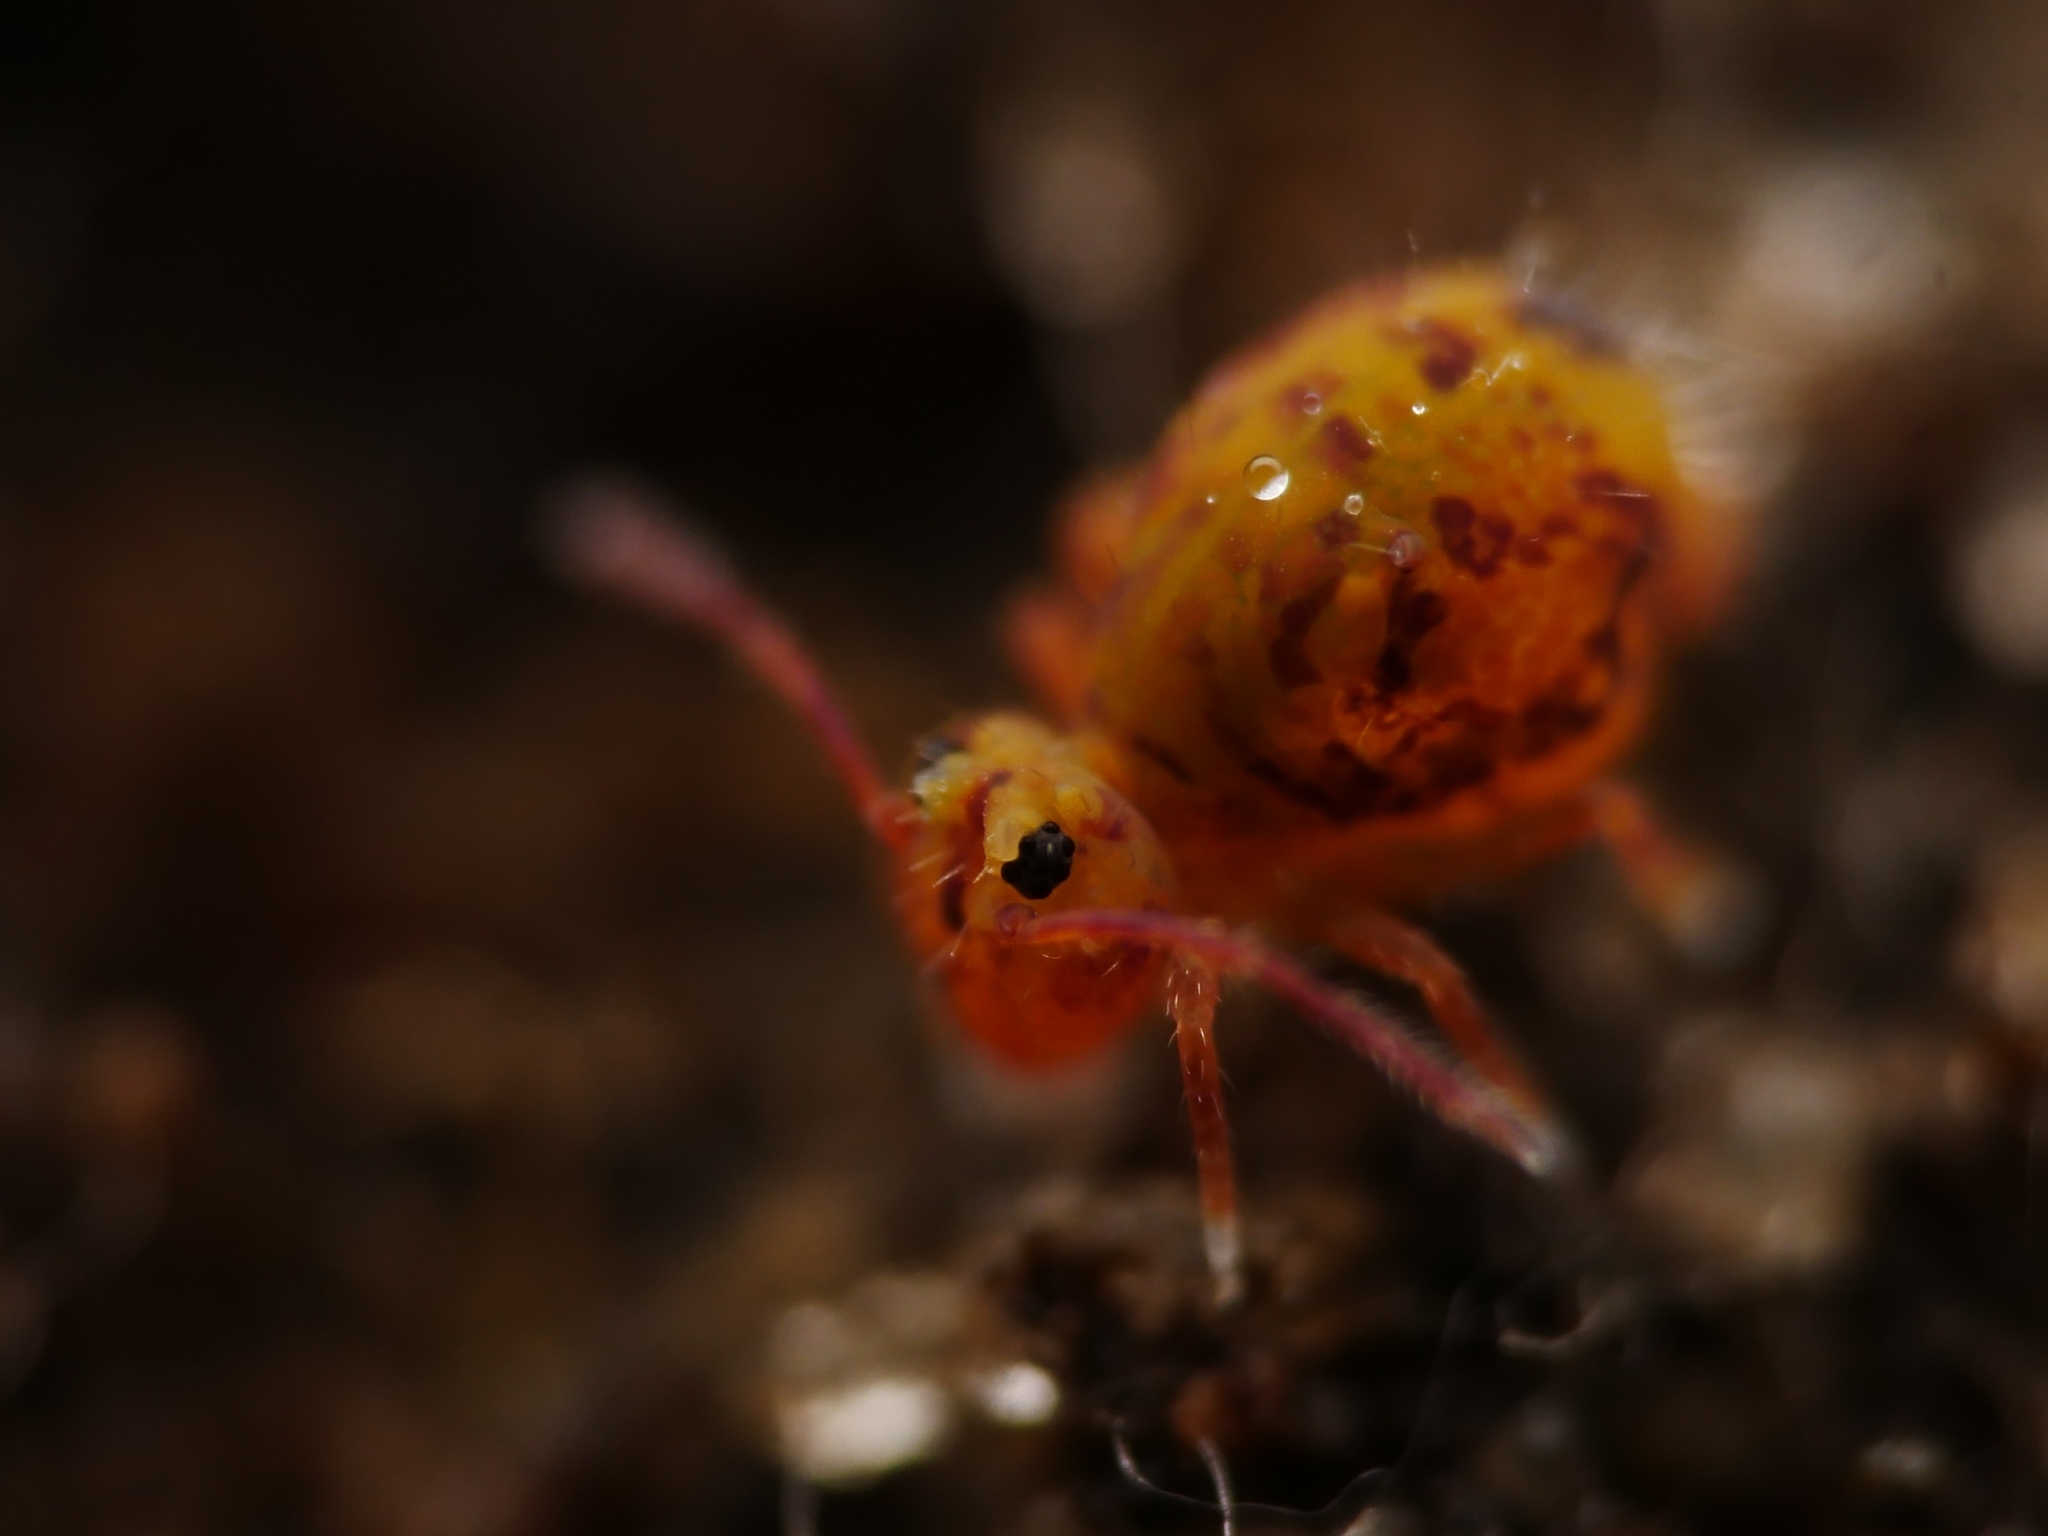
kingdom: Animalia
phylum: Arthropoda
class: Collembola
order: Symphypleona
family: Dicyrtomidae
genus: Dicyrtomina
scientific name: Dicyrtomina ornata
